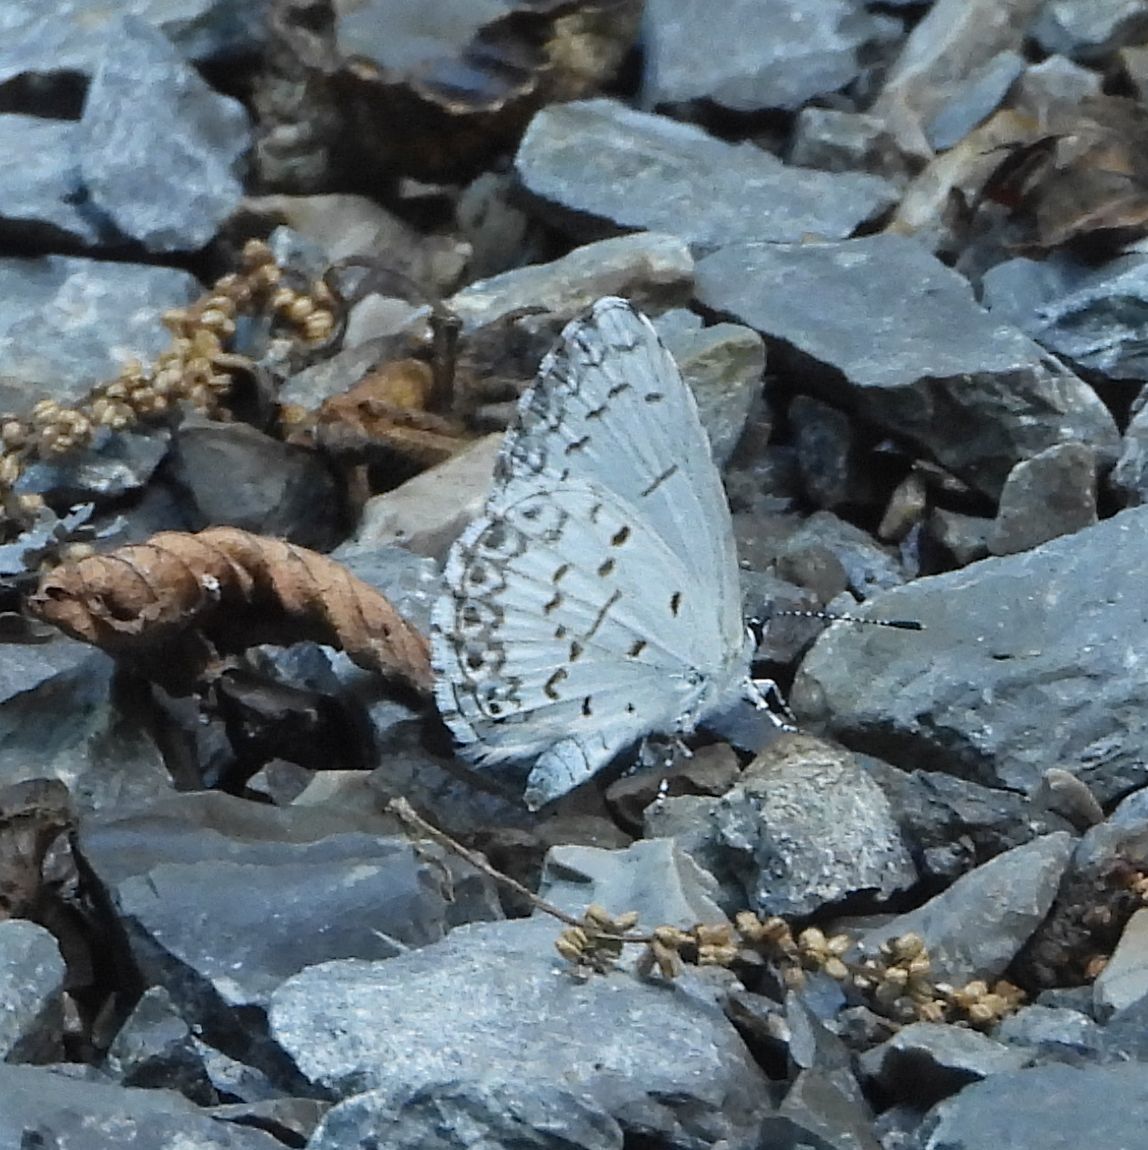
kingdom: Animalia
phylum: Arthropoda
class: Insecta
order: Lepidoptera
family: Lycaenidae
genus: Celastrina
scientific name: Celastrina lucia
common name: Lucia azure
